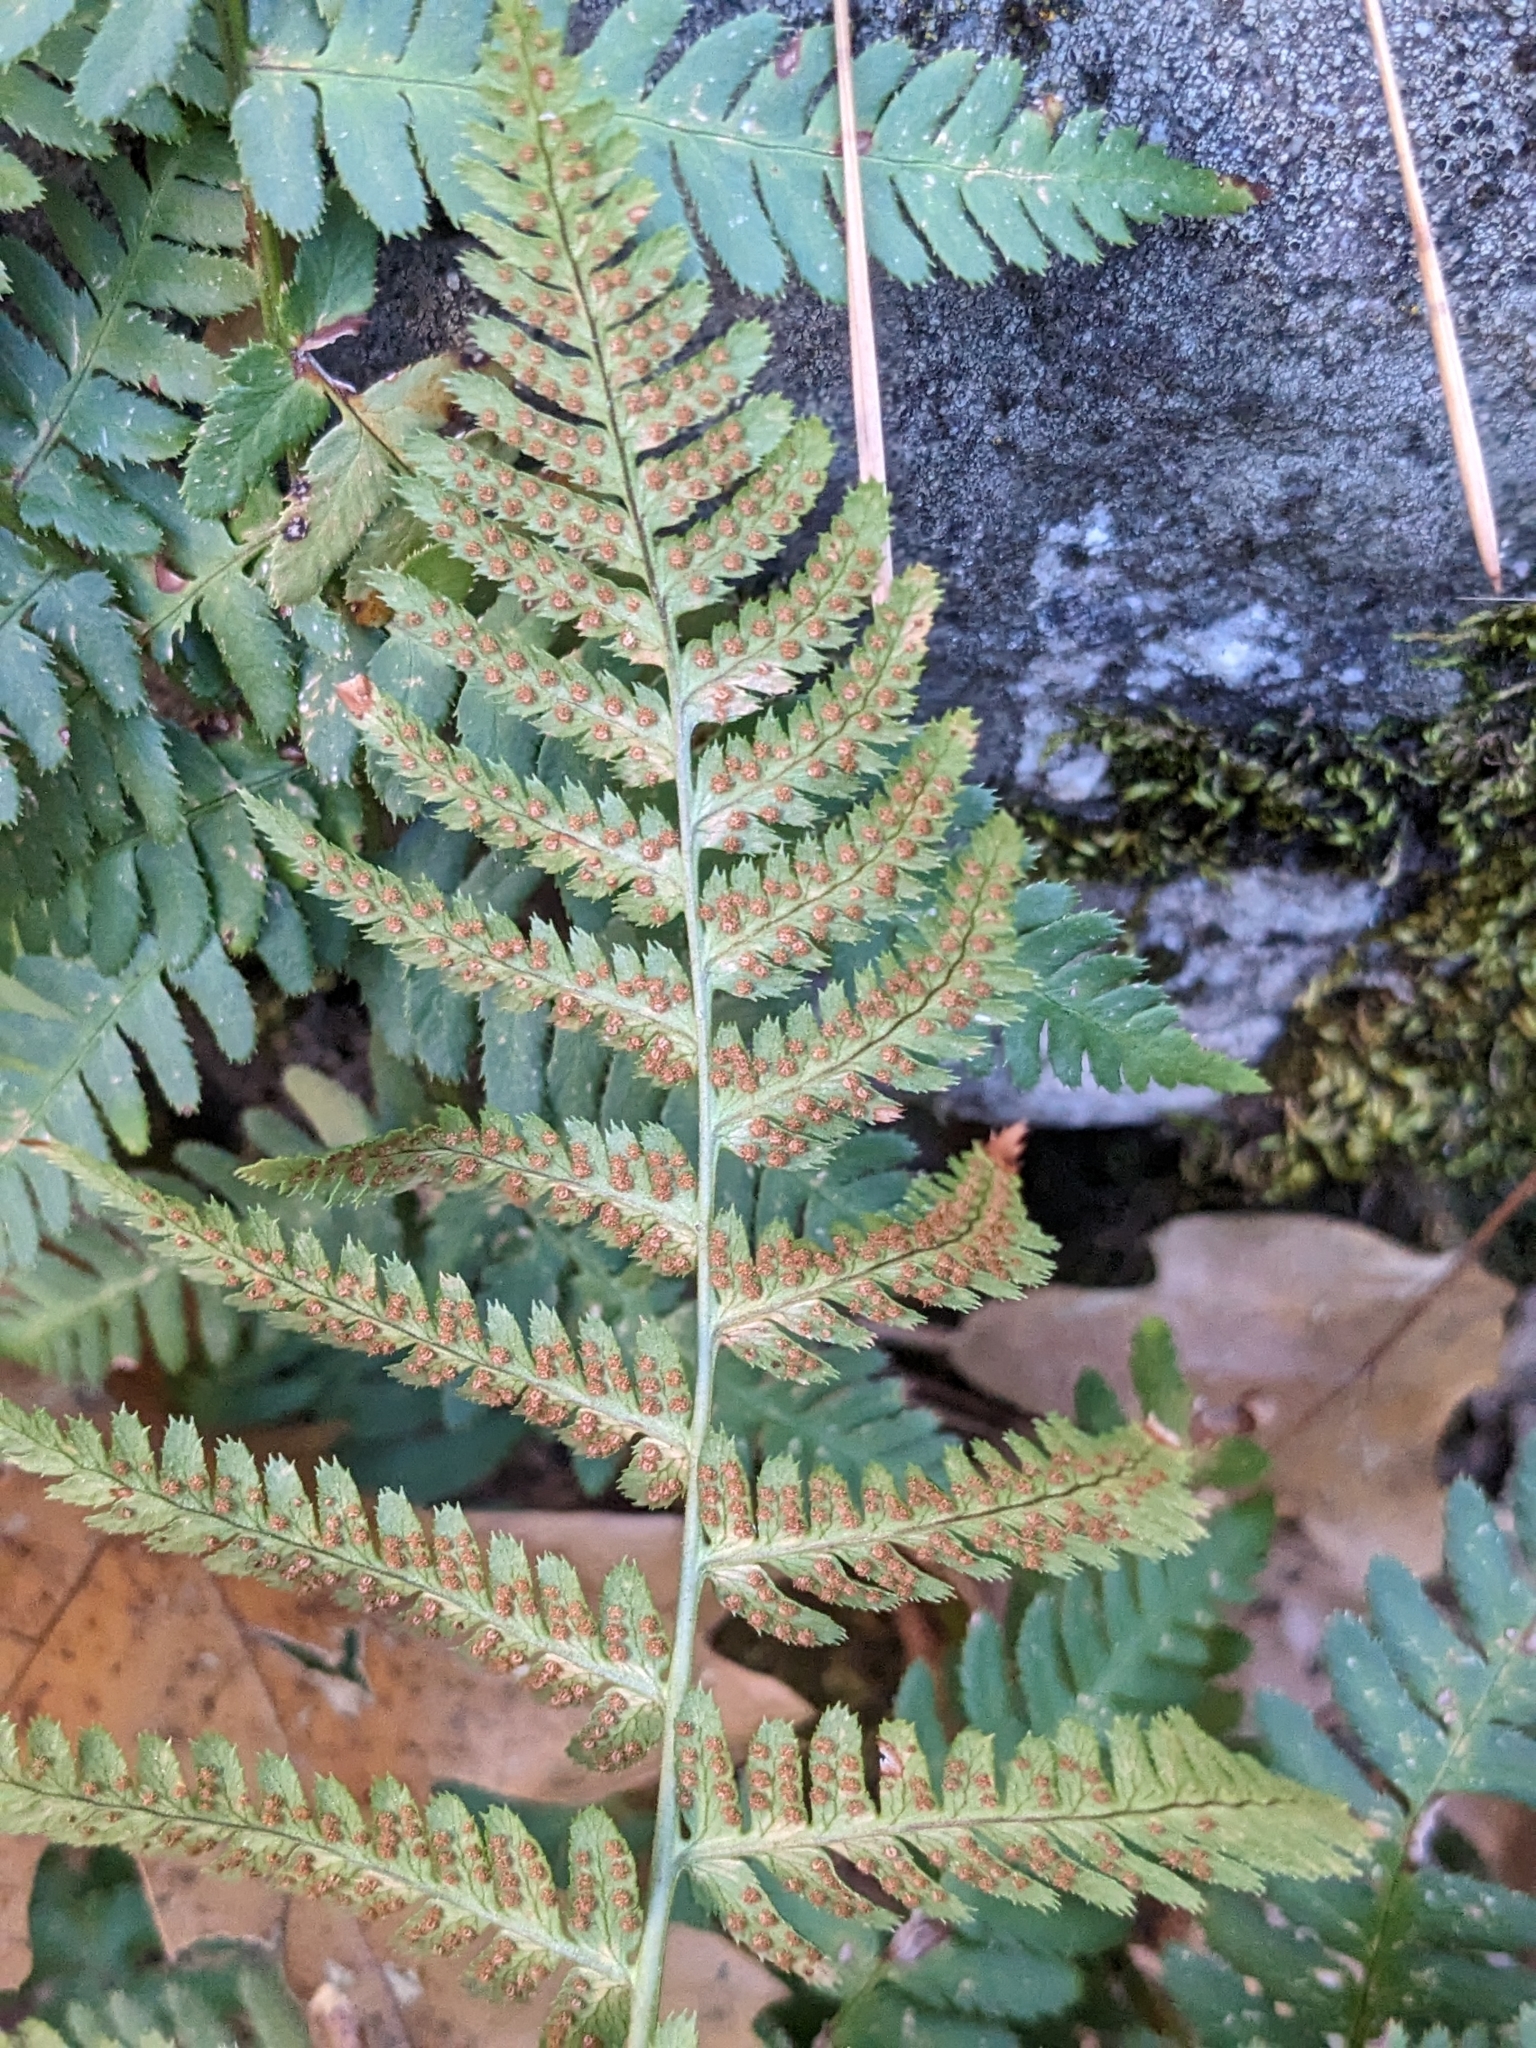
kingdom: Plantae
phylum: Tracheophyta
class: Polypodiopsida
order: Polypodiales
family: Dryopteridaceae
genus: Dryopteris
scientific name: Dryopteris arguta
